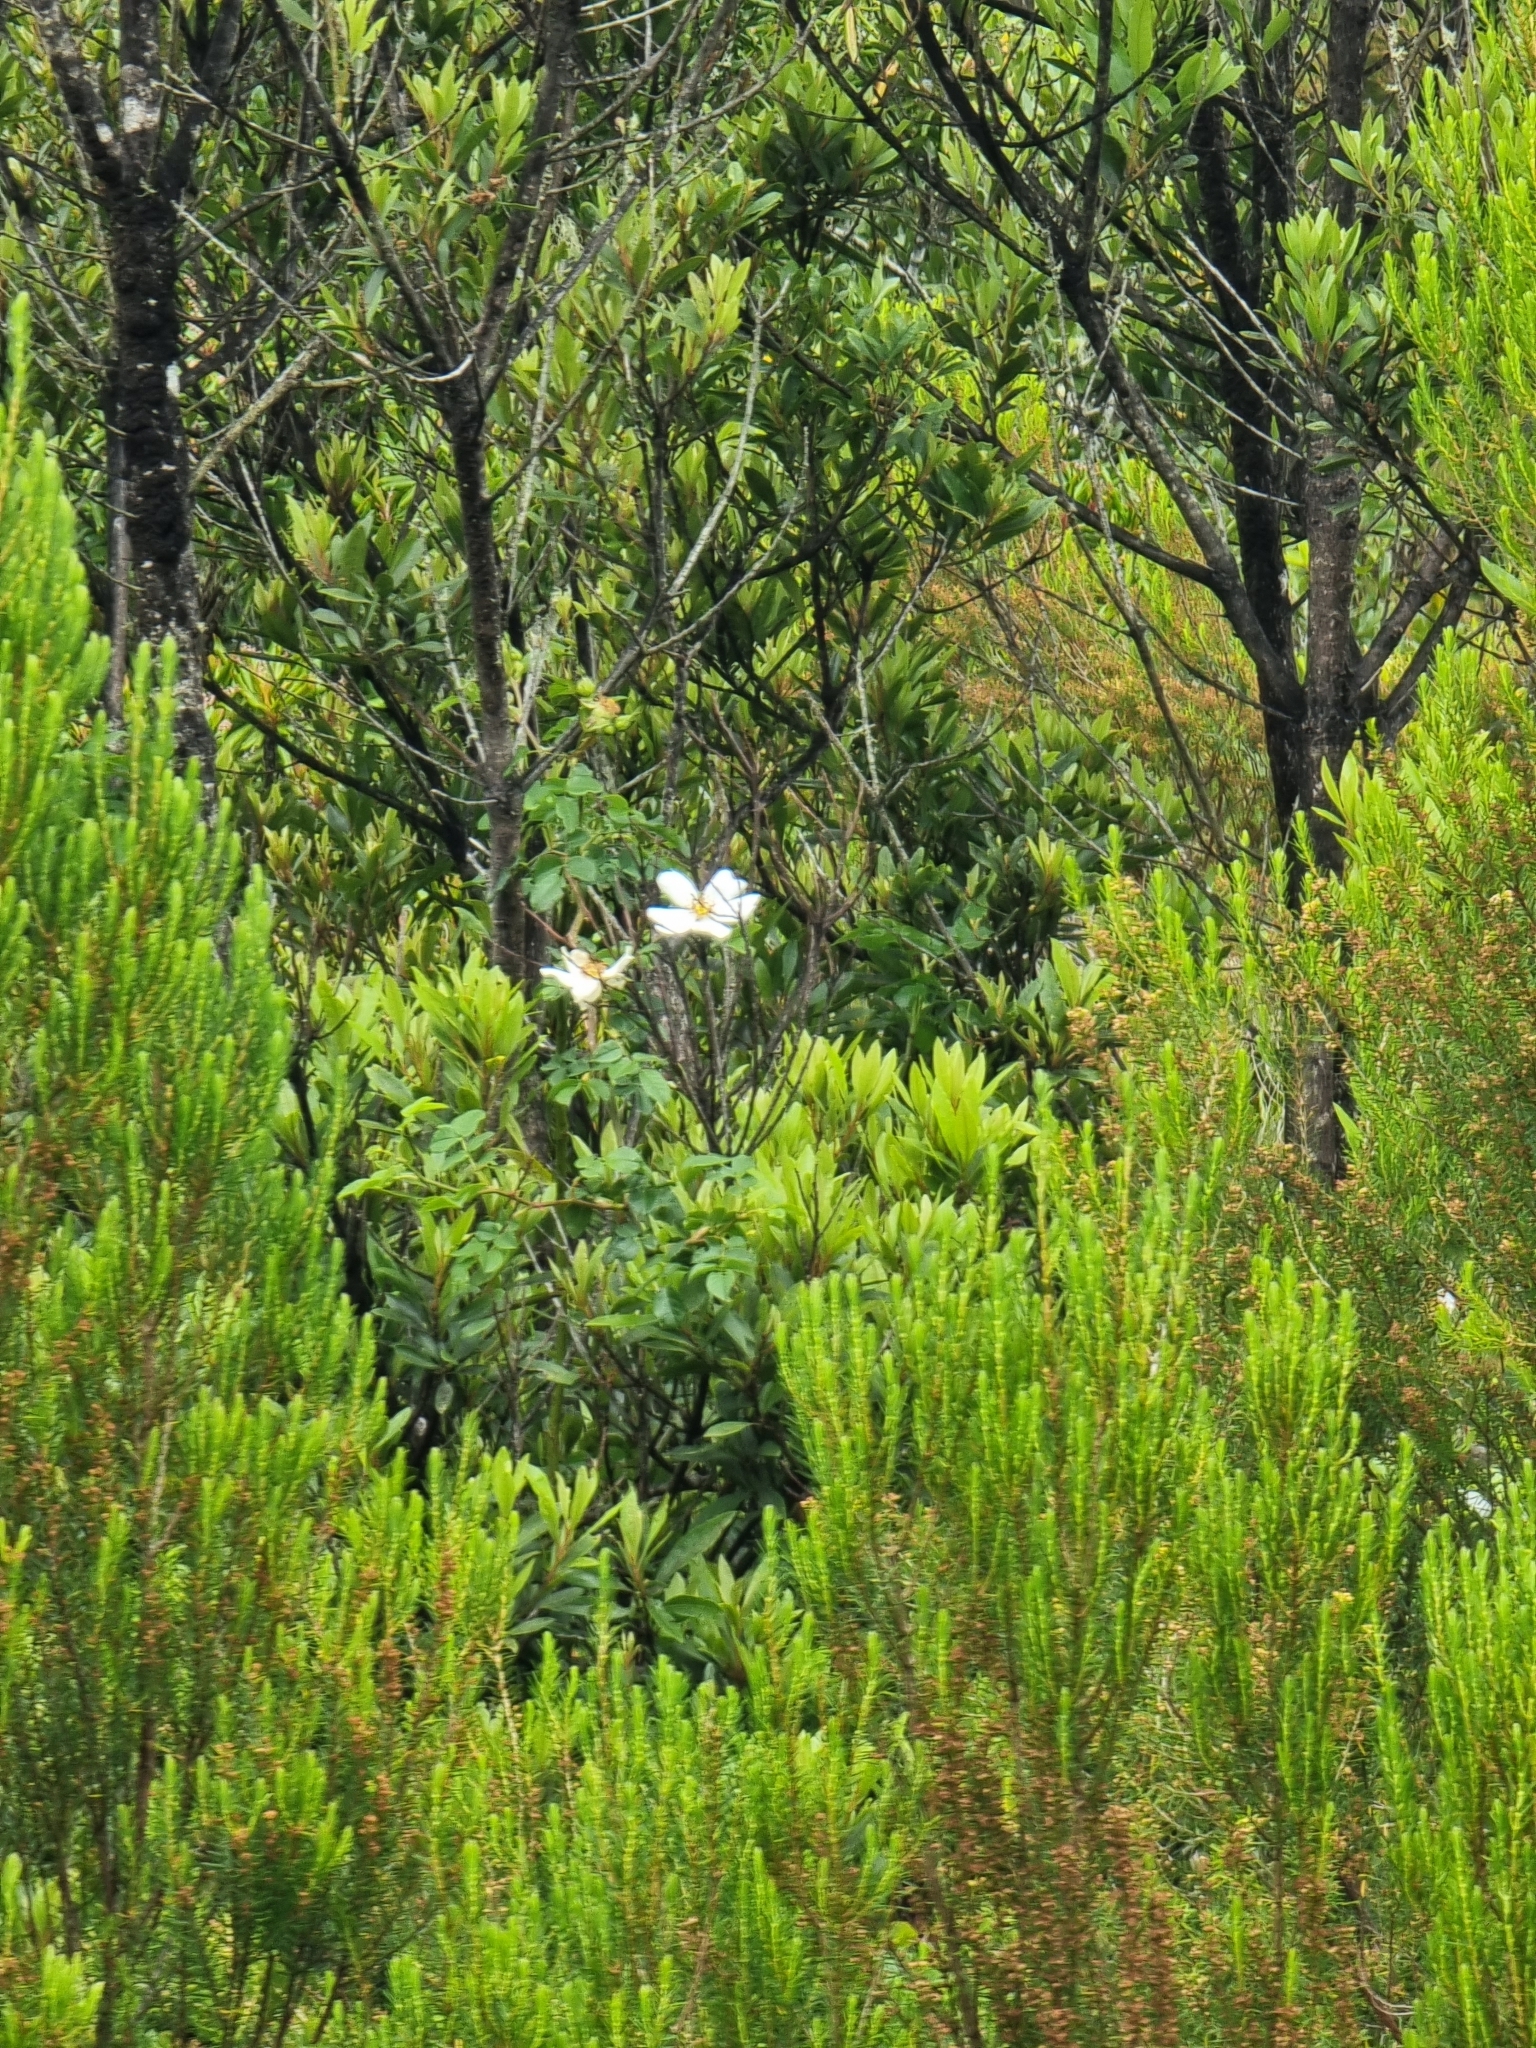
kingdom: Plantae
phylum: Tracheophyta
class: Magnoliopsida
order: Rosales
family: Rosaceae
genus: Rosa
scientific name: Rosa canina
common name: Dog rose
